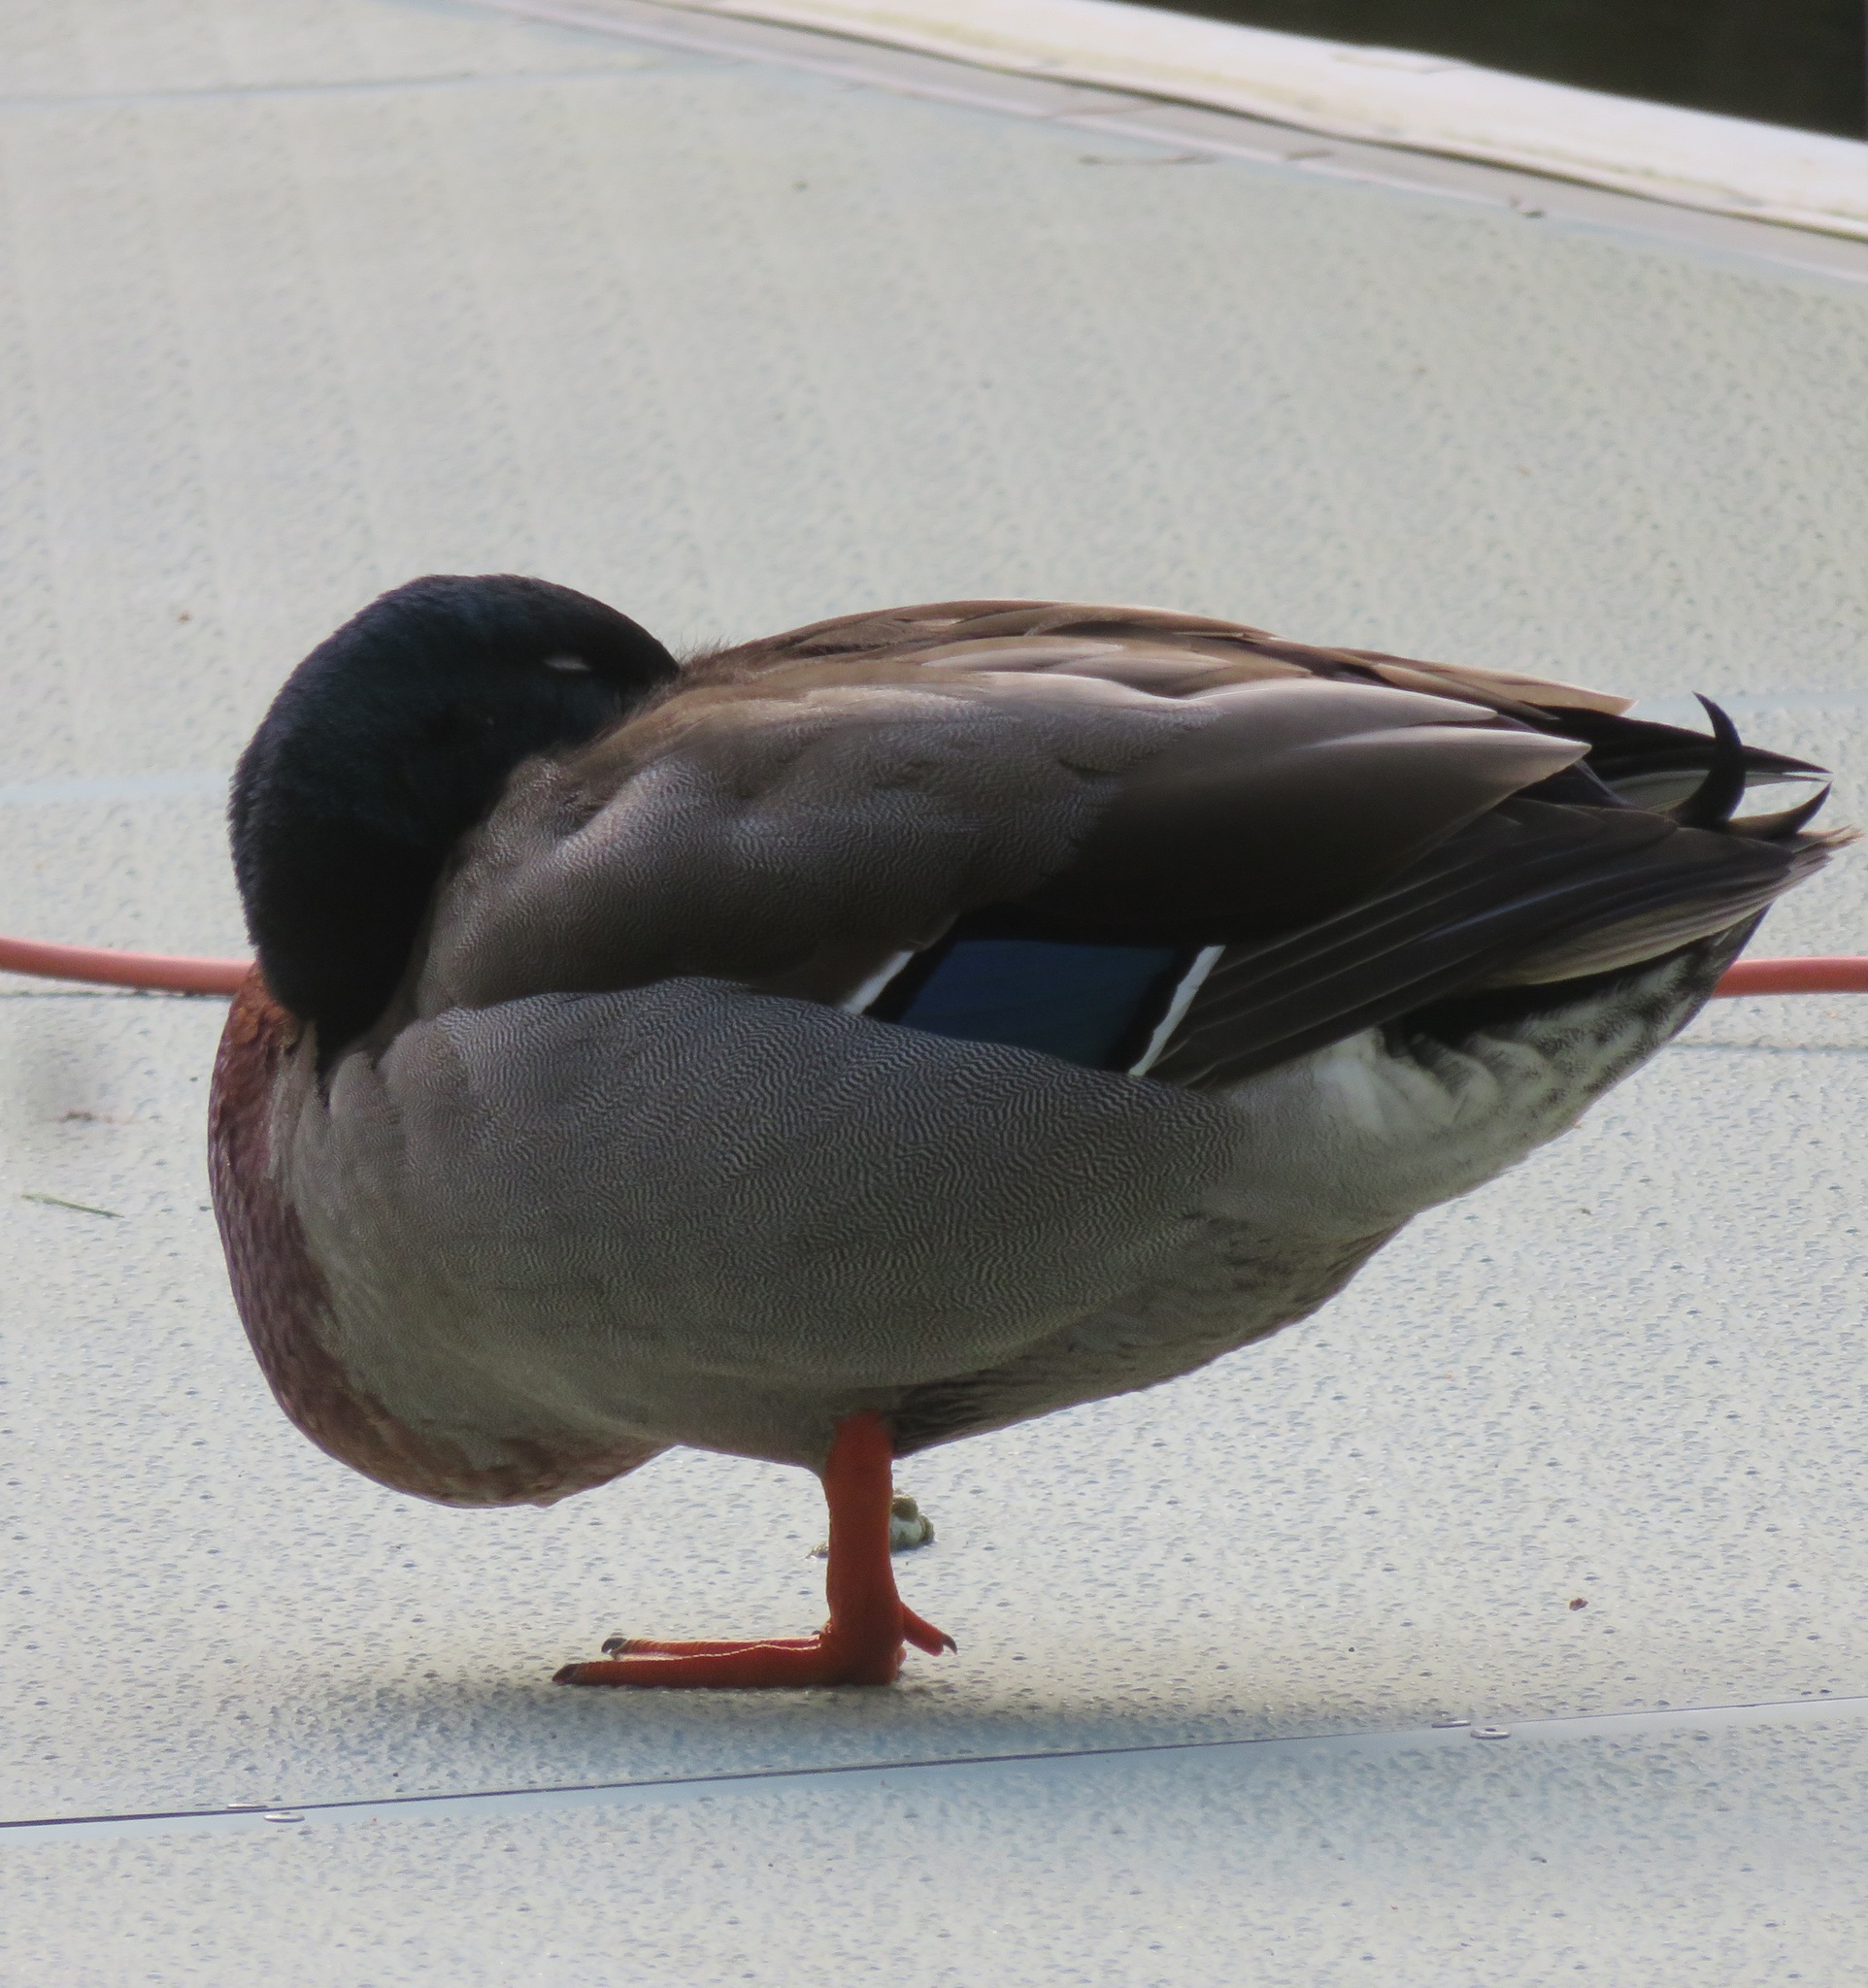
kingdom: Animalia
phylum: Chordata
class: Aves
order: Anseriformes
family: Anatidae
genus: Anas
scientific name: Anas platyrhynchos
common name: Mallard
